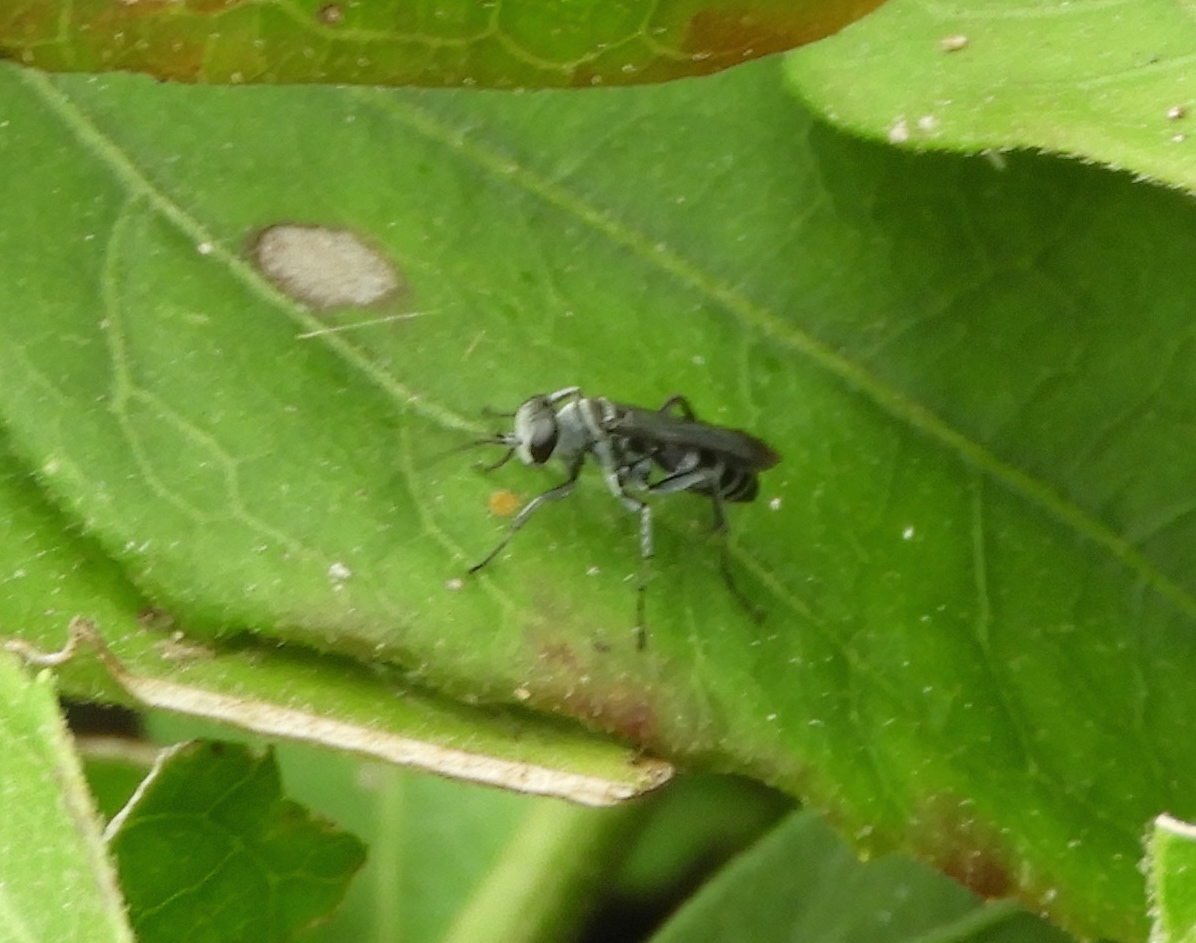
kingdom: Animalia
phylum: Arthropoda
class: Insecta
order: Hymenoptera
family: Pompilidae
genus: Aporinellus
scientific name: Aporinellus
